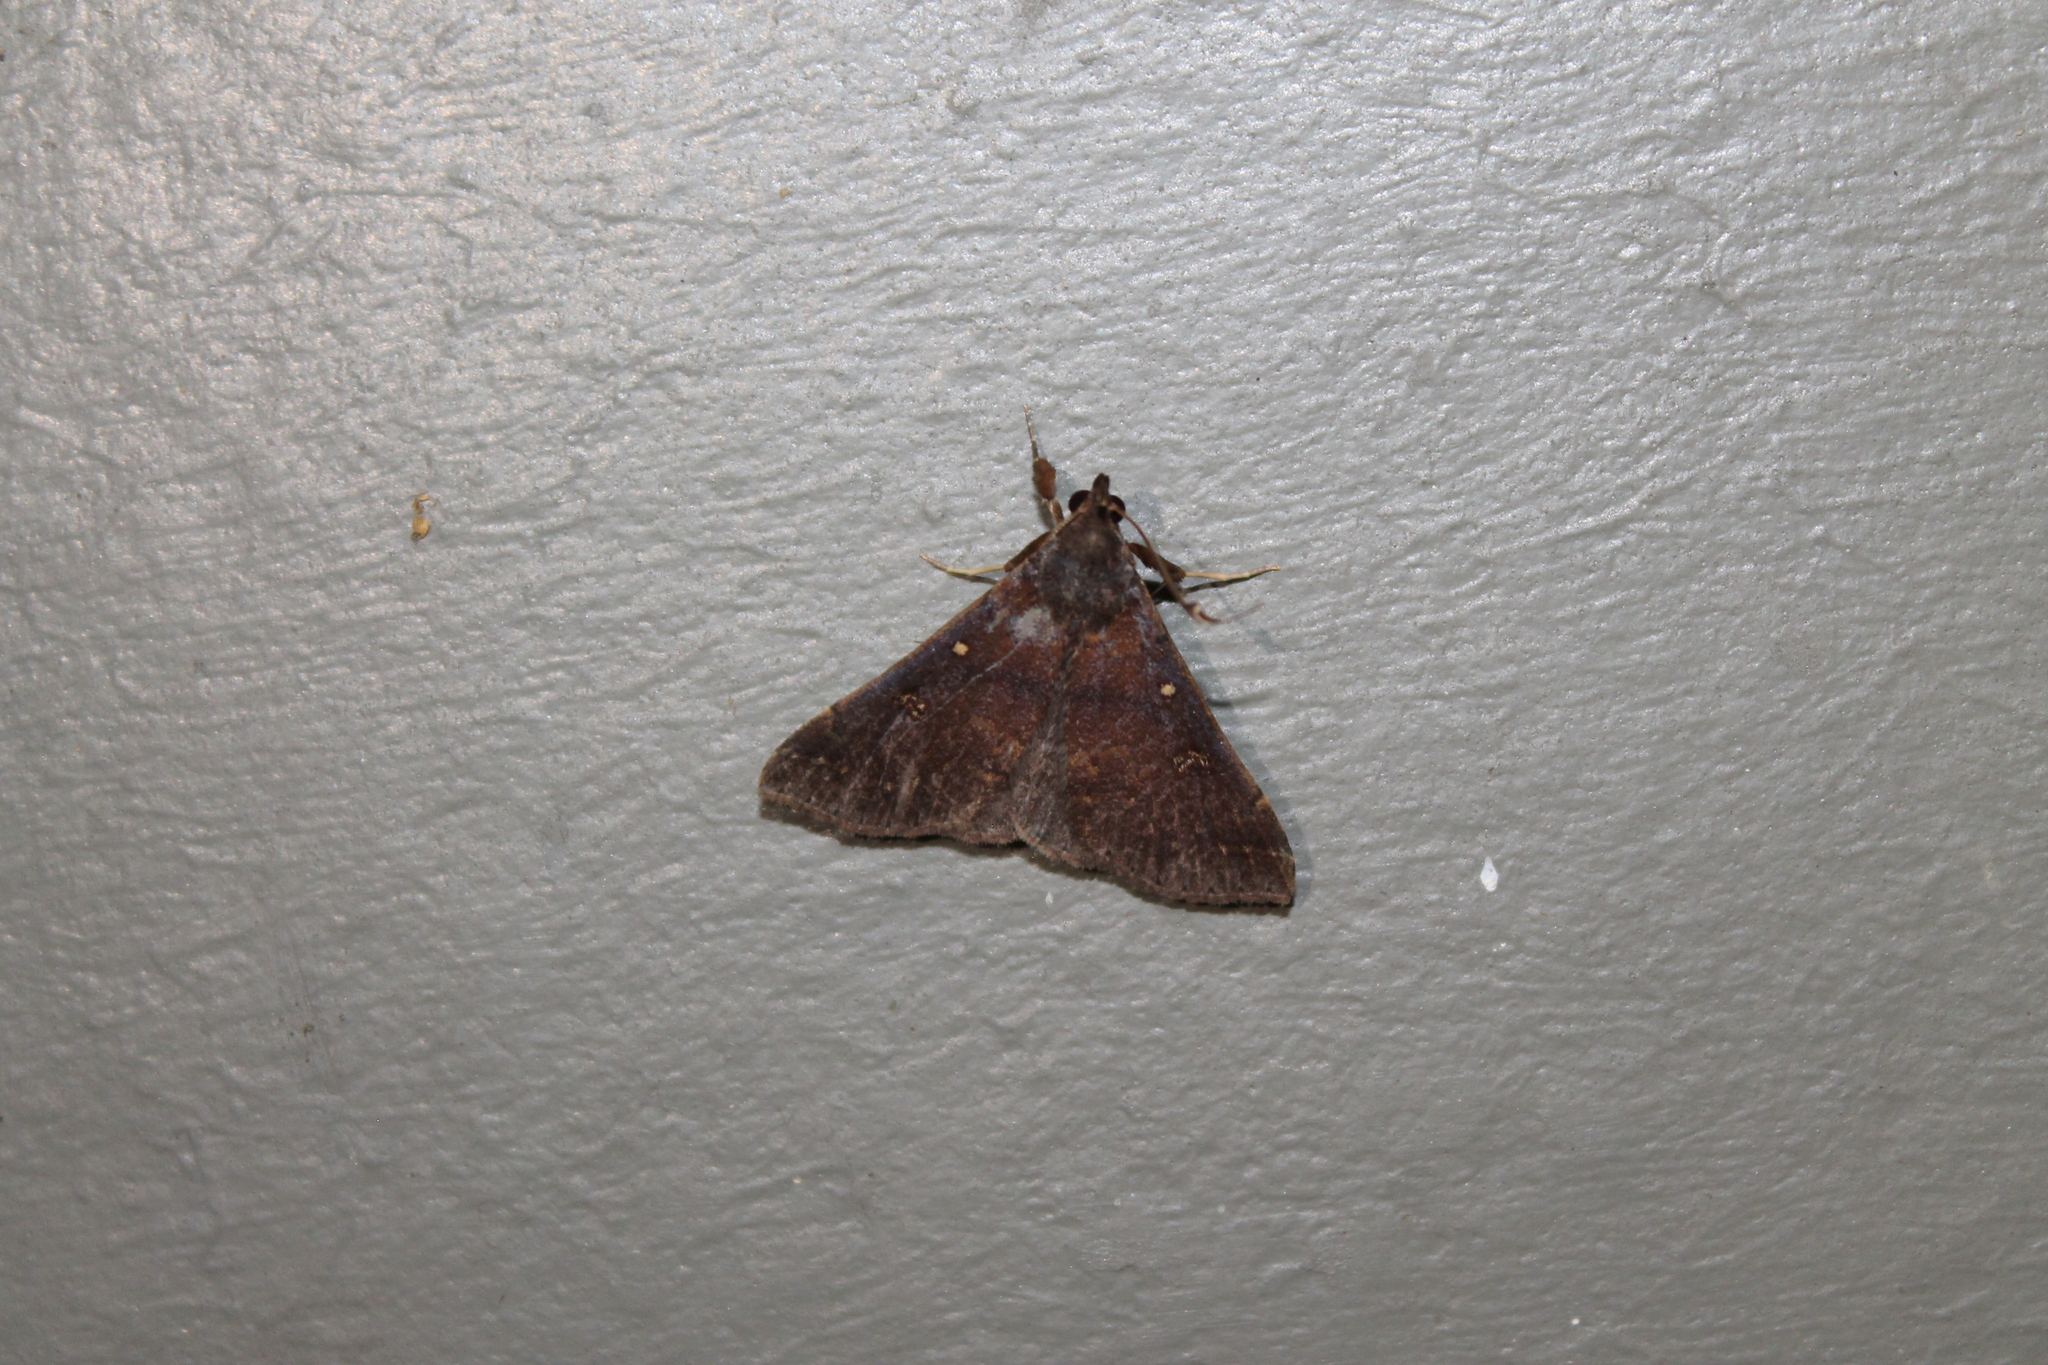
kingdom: Animalia
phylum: Arthropoda
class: Insecta
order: Lepidoptera
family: Erebidae
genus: Renia
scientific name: Renia discoloralis
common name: Discolored renia moth
